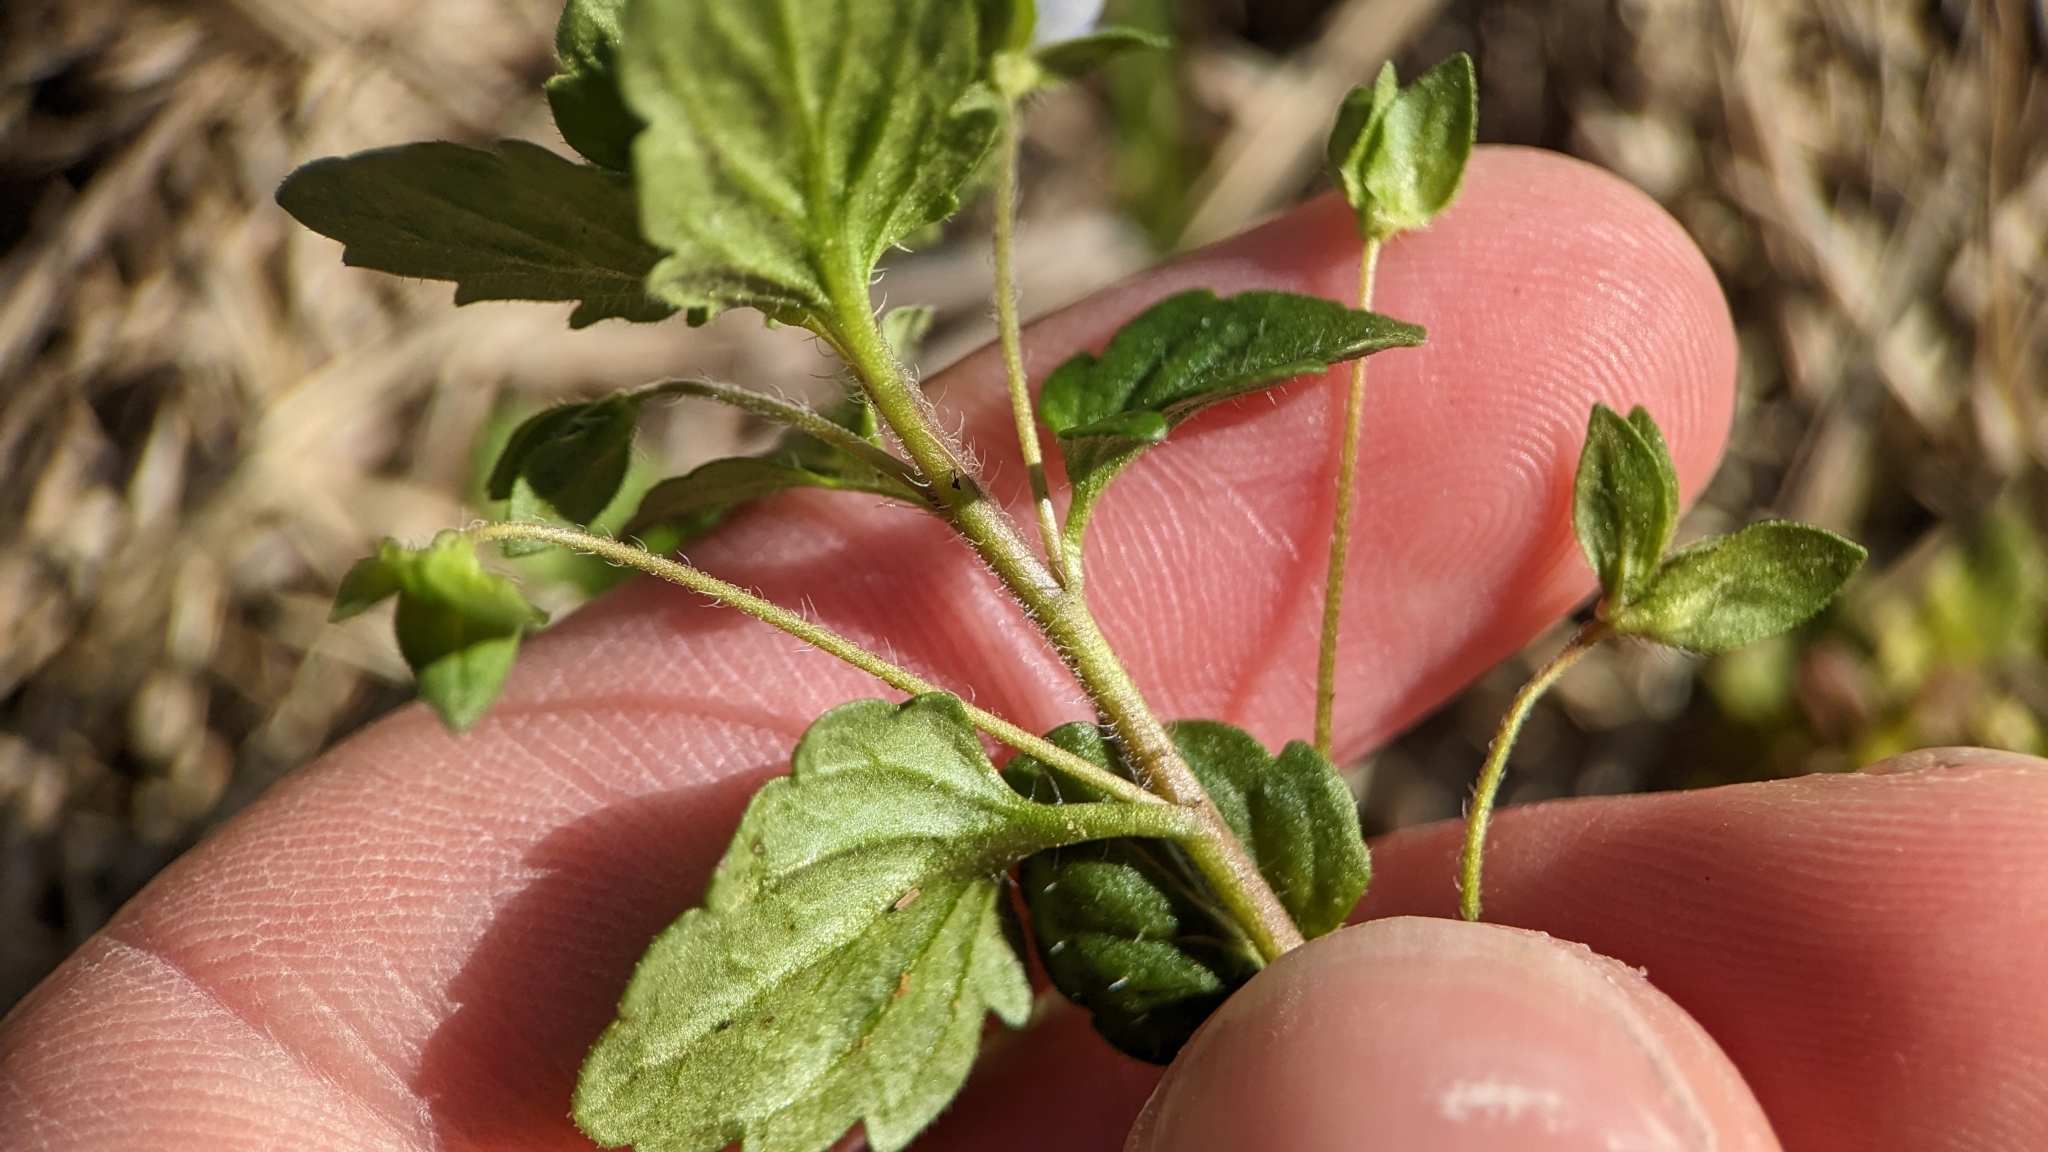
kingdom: Plantae
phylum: Tracheophyta
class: Magnoliopsida
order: Lamiales
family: Plantaginaceae
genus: Veronica
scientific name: Veronica persica
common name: Common field-speedwell
